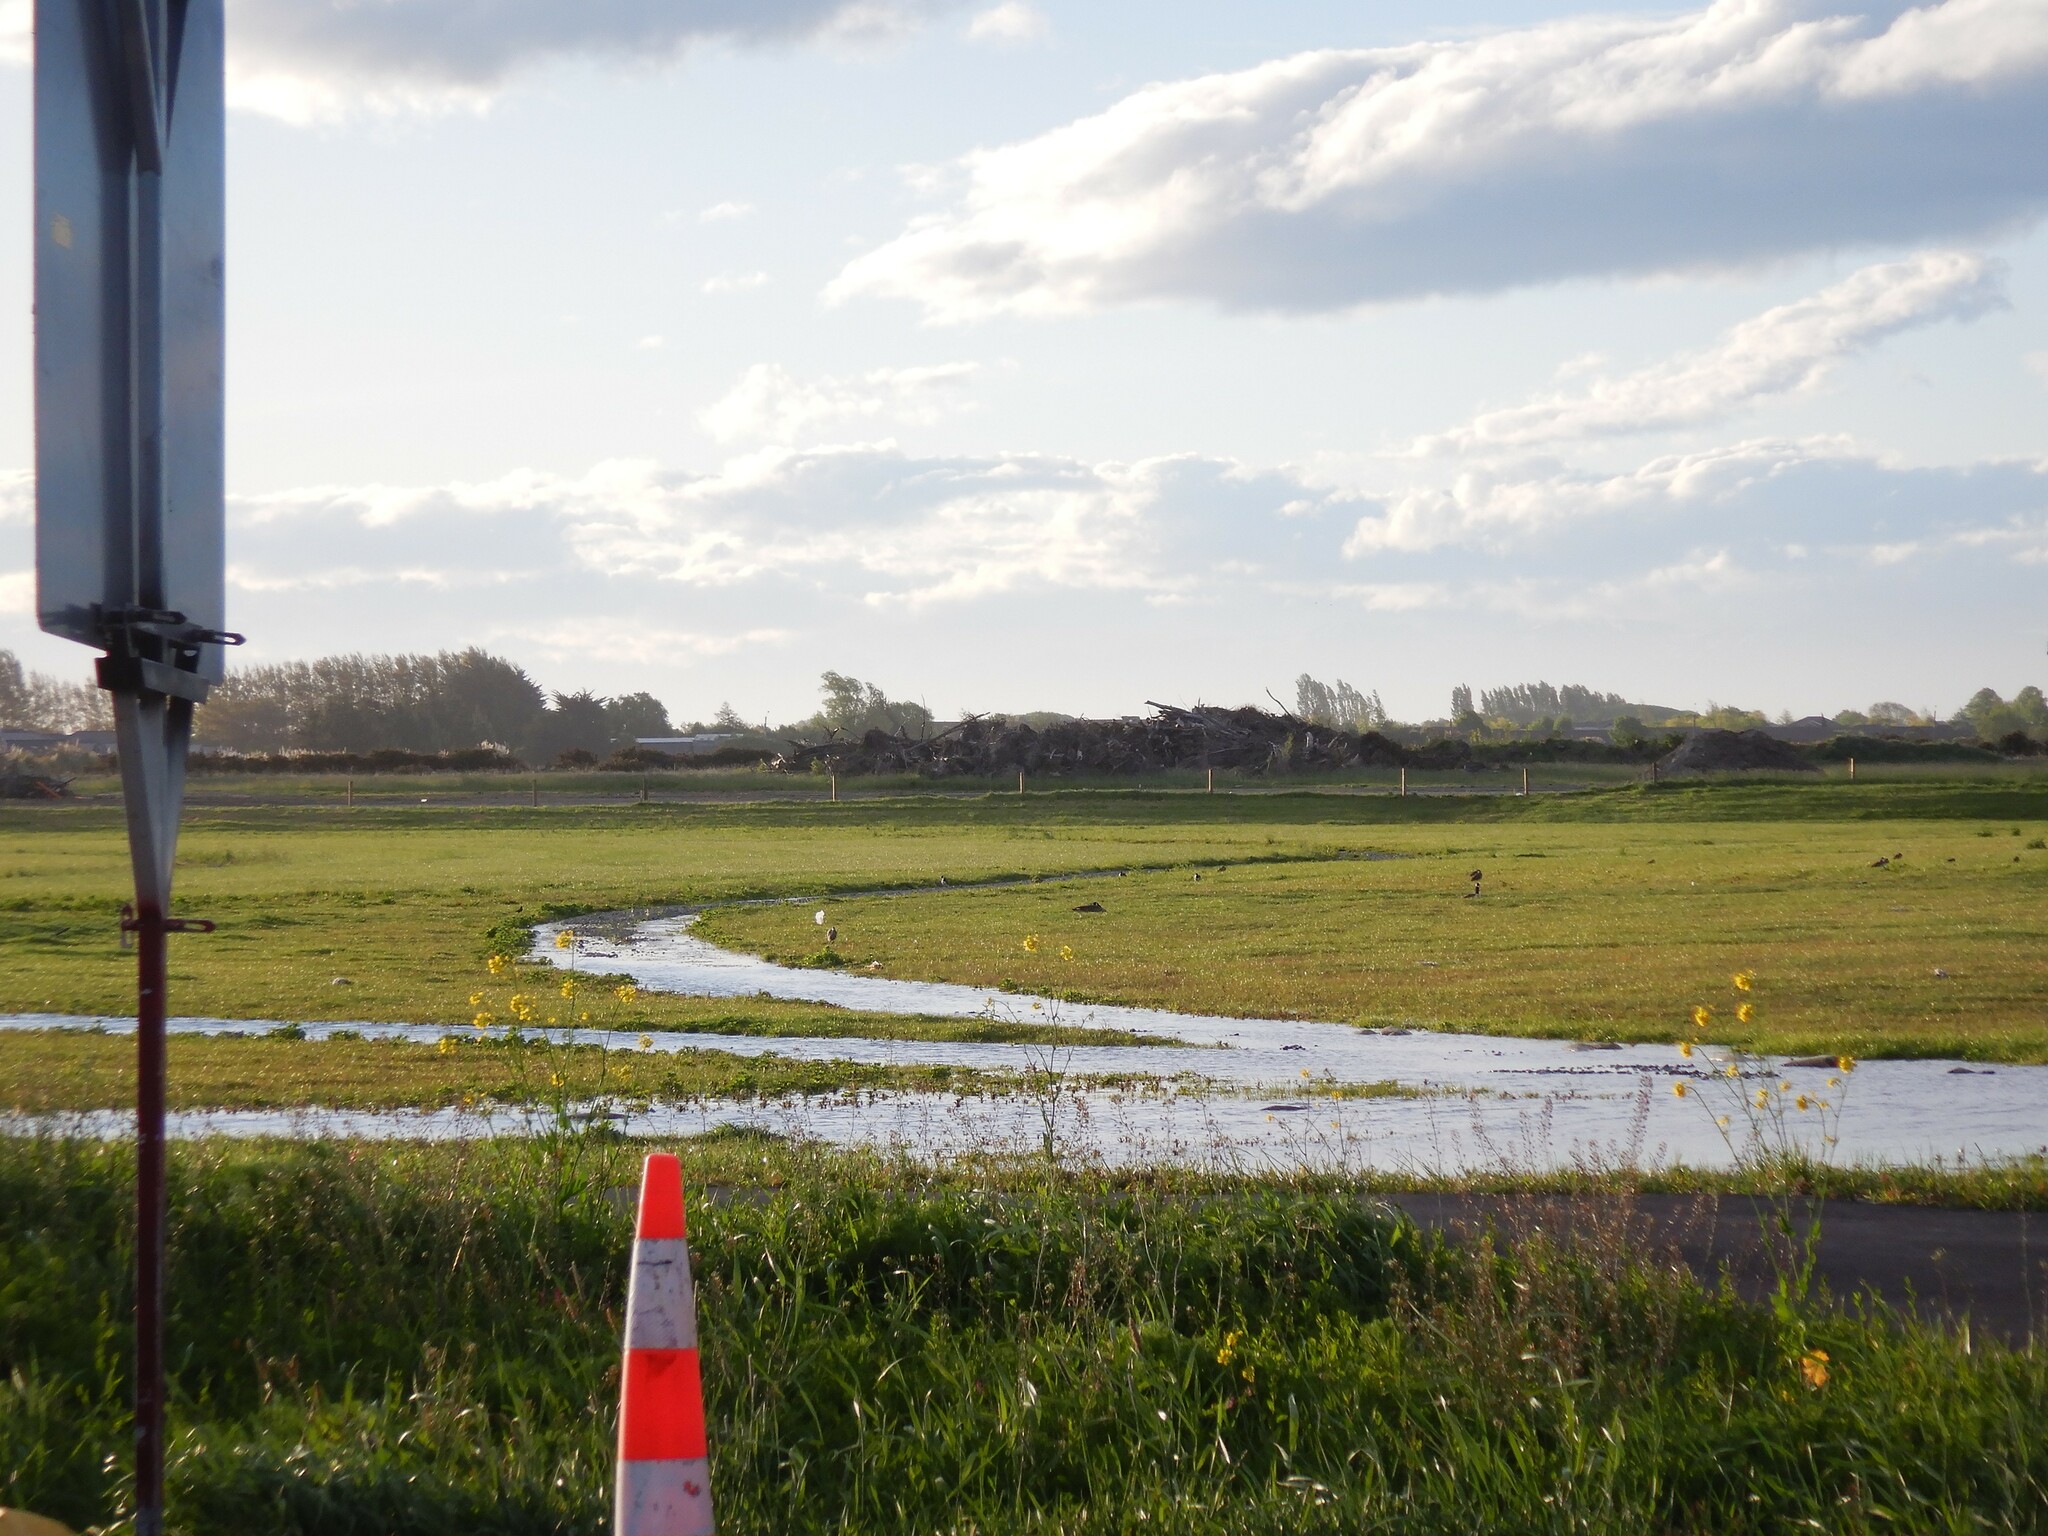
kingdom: Animalia
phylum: Chordata
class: Aves
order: Anseriformes
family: Anatidae
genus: Branta
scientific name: Branta canadensis
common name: Canada goose
